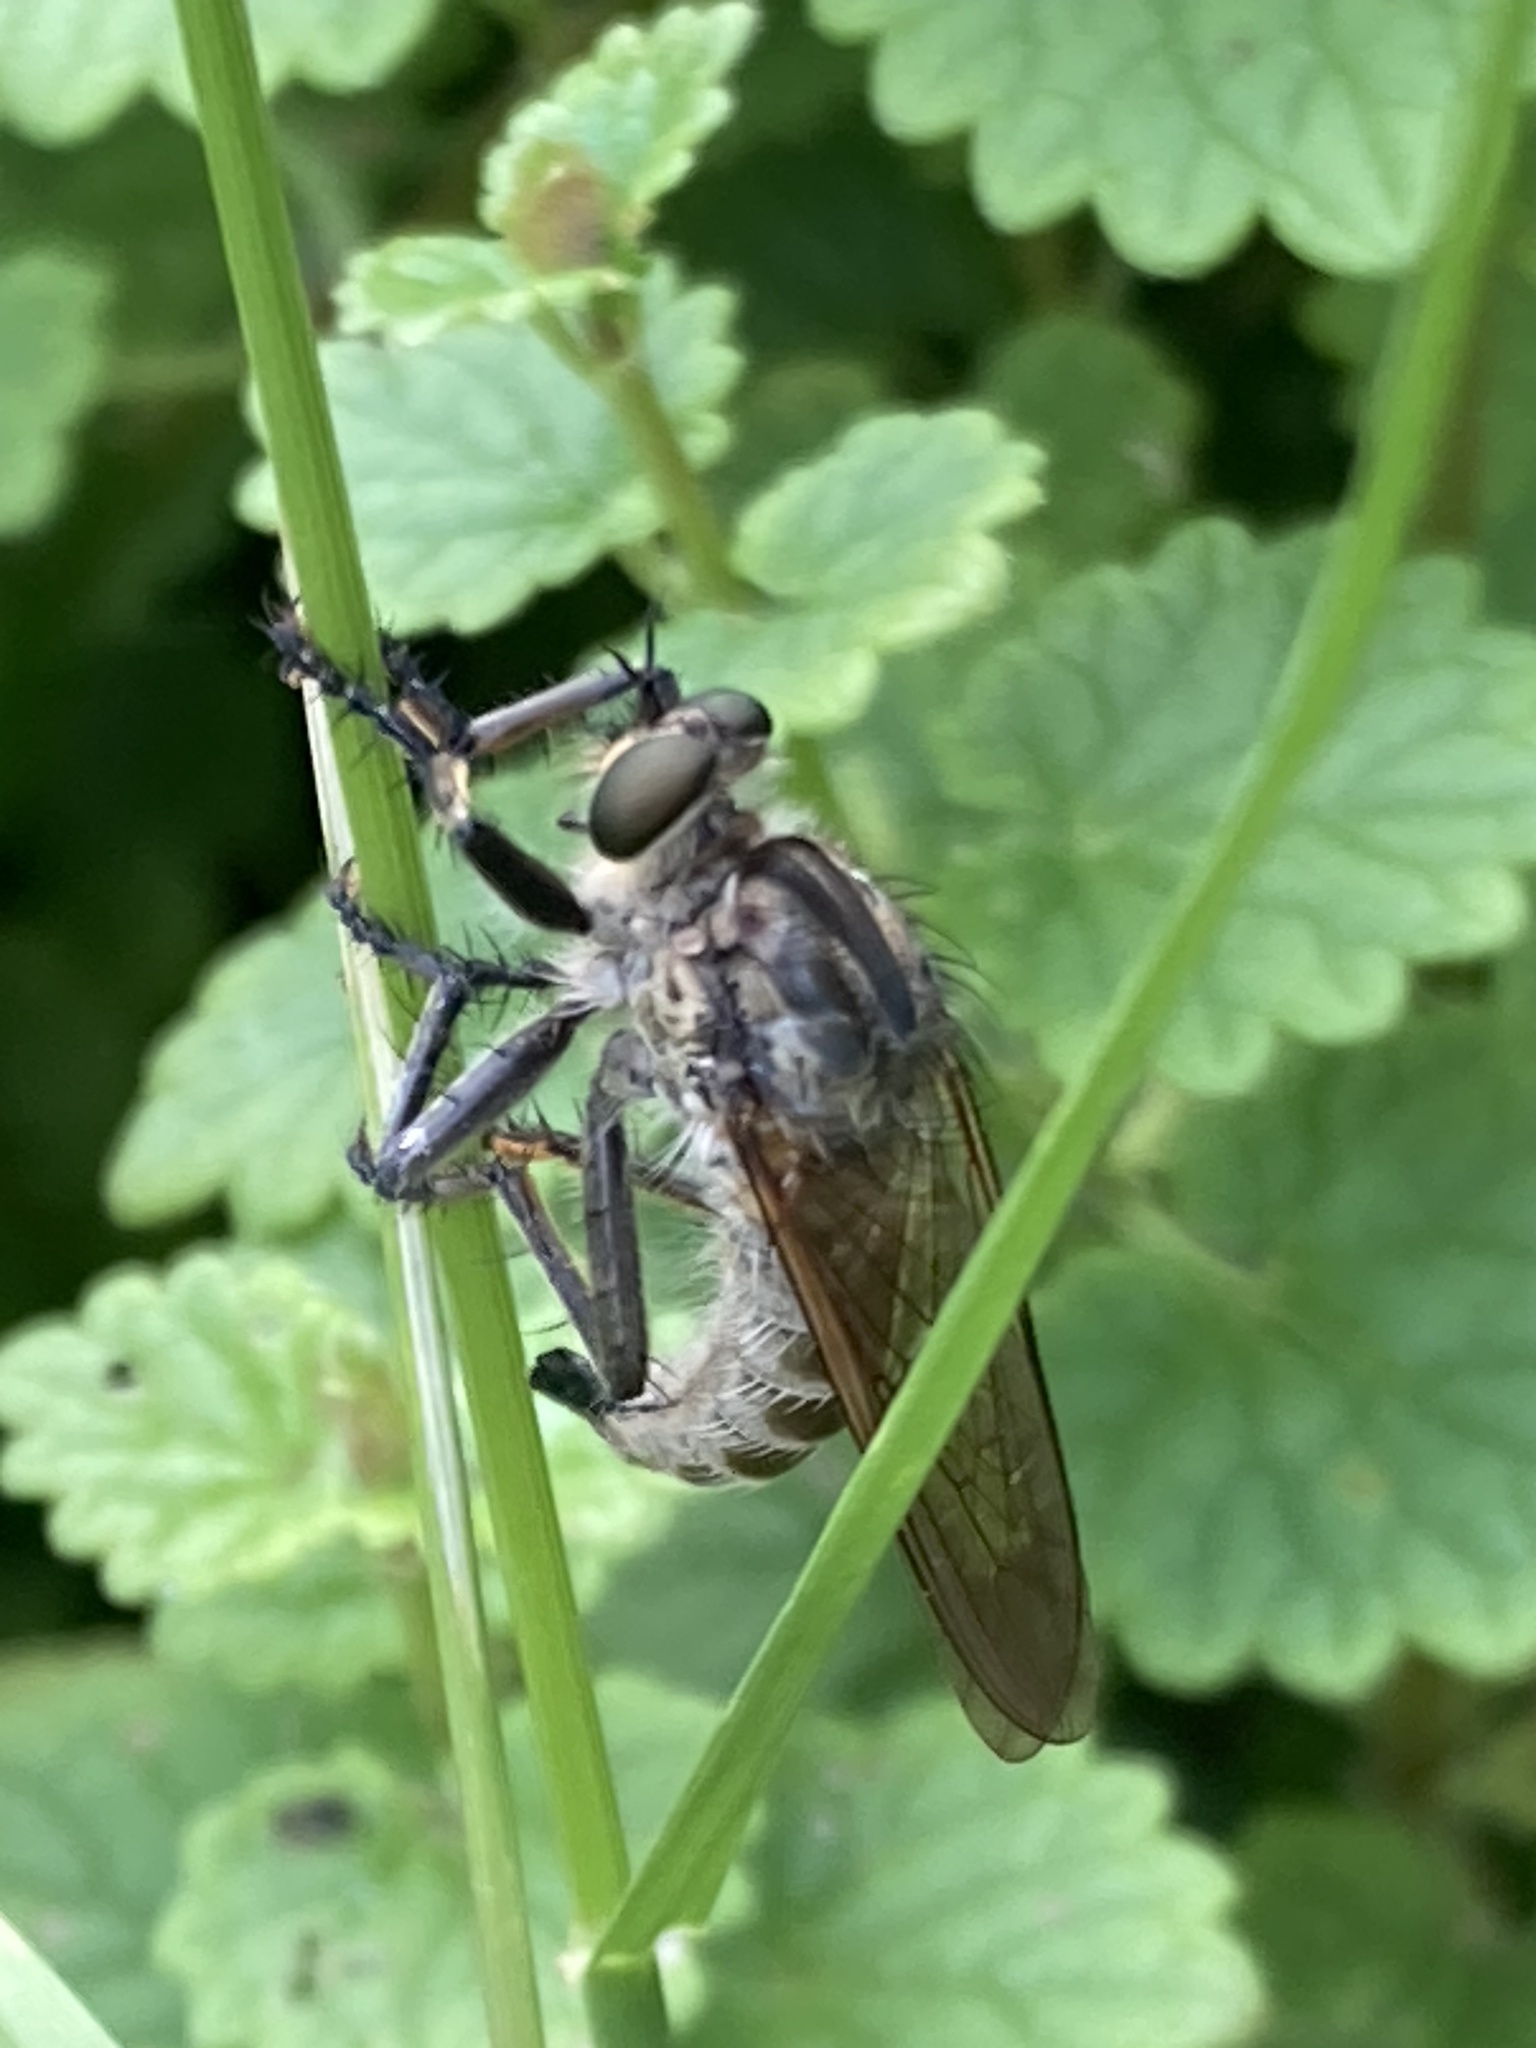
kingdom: Animalia
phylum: Arthropoda
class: Insecta
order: Diptera
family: Asilidae
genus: Eutolmus
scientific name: Eutolmus rufibarbis
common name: Golden-tabbed robberfly
